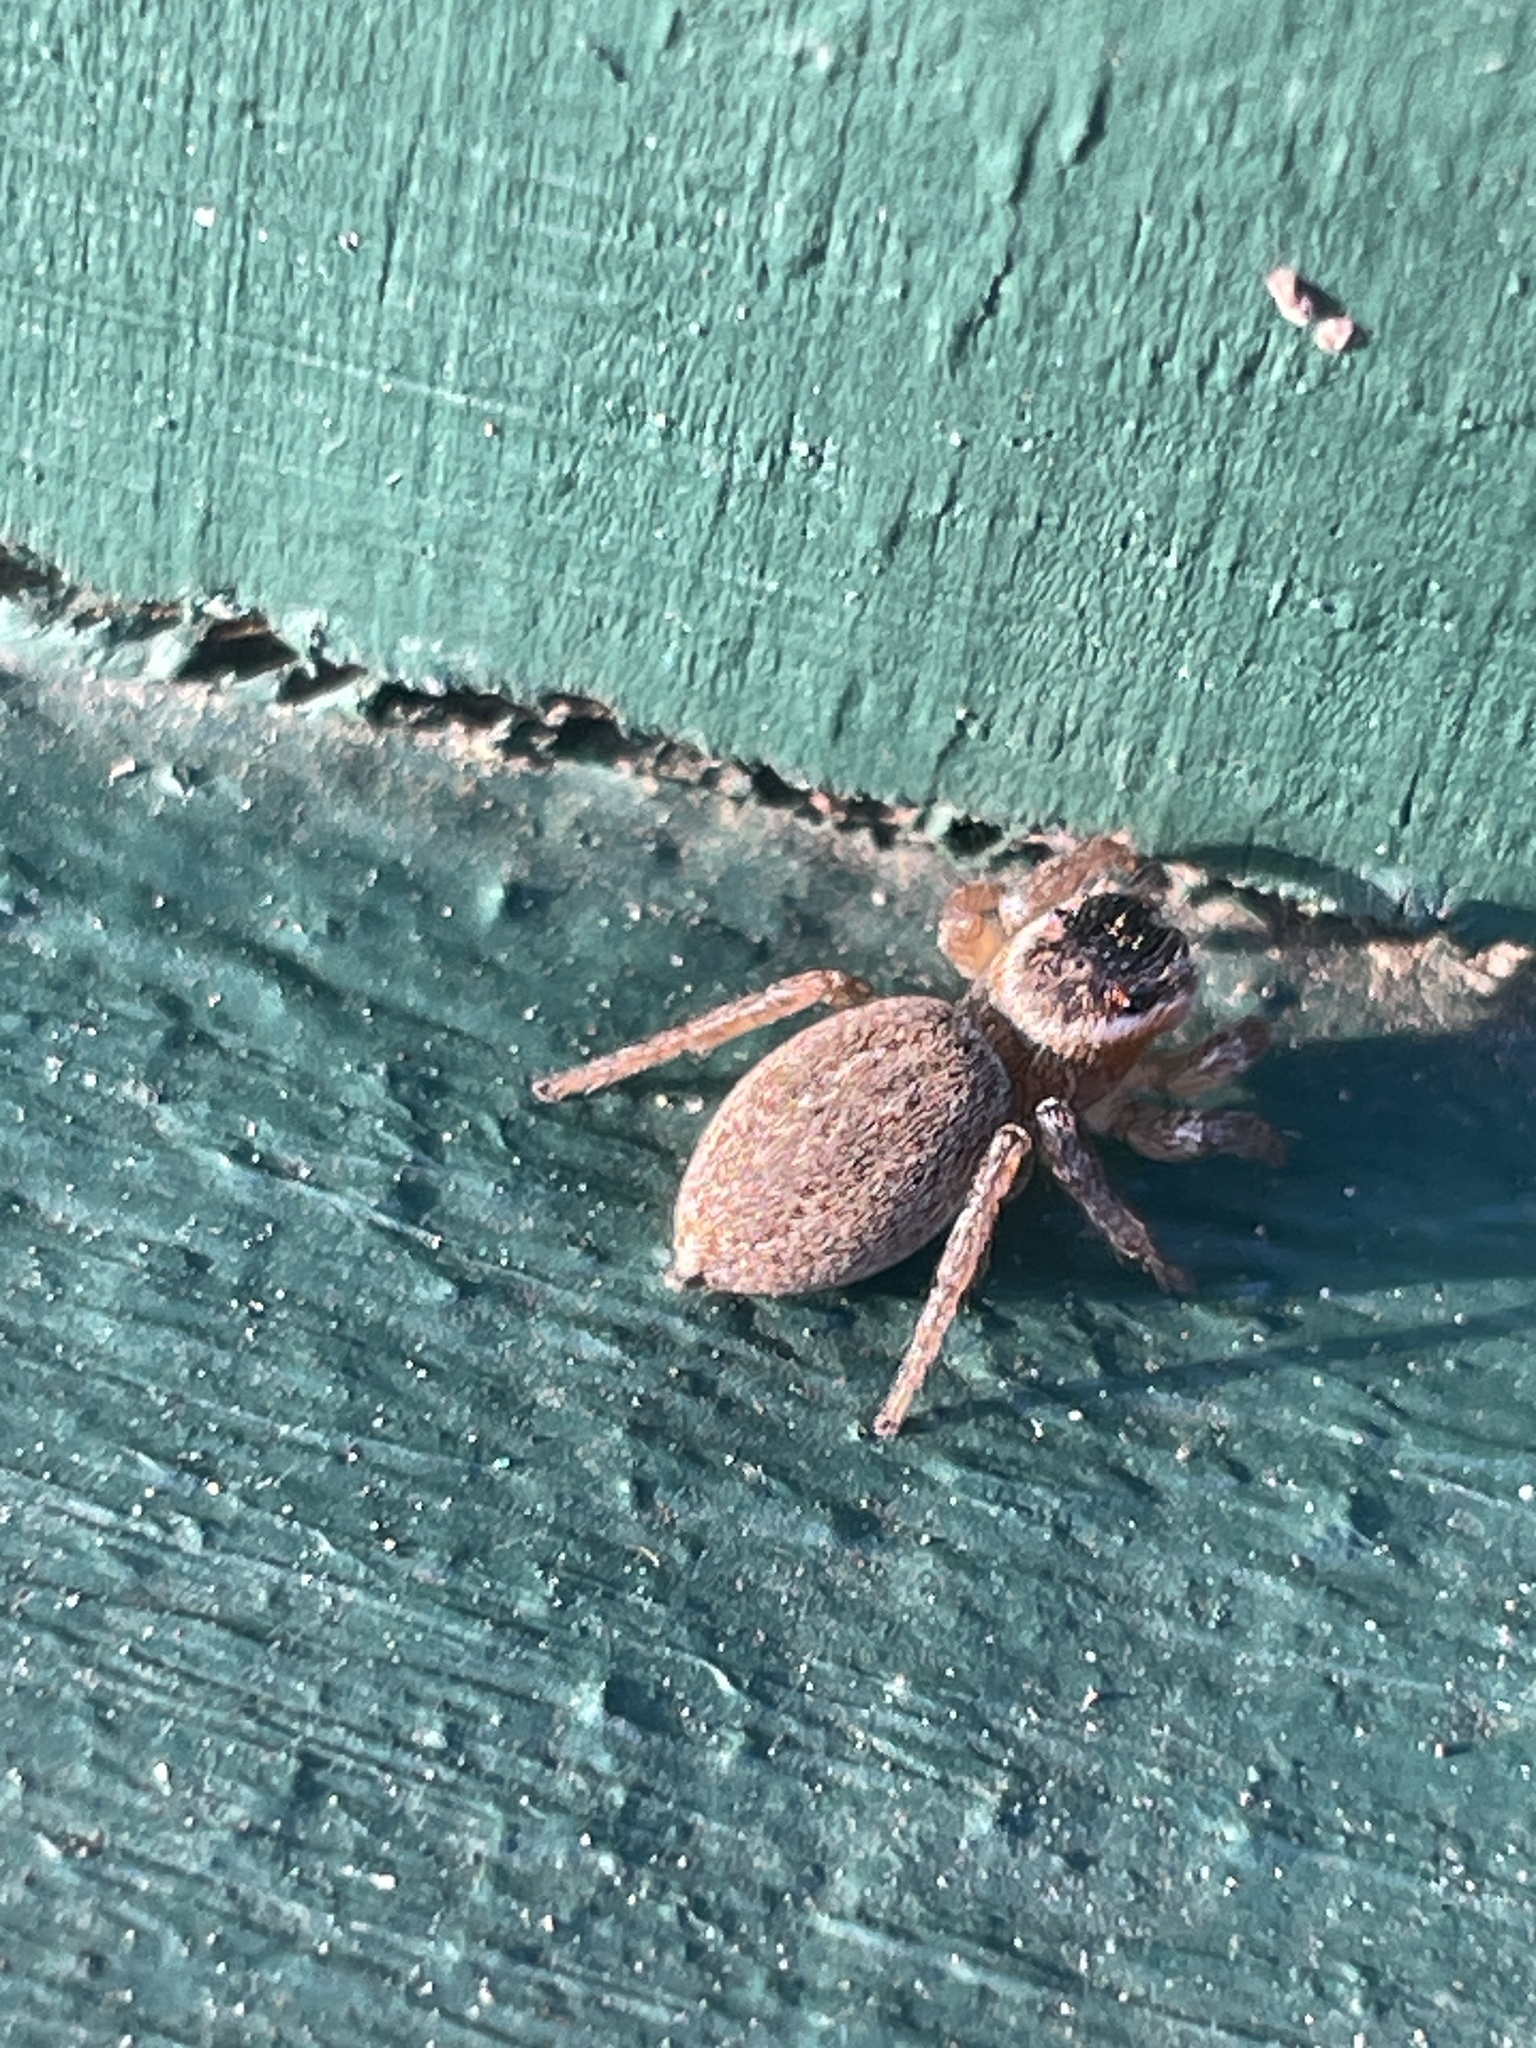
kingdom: Animalia
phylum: Arthropoda
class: Arachnida
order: Araneae
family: Salticidae
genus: Maratus
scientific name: Maratus griseus
